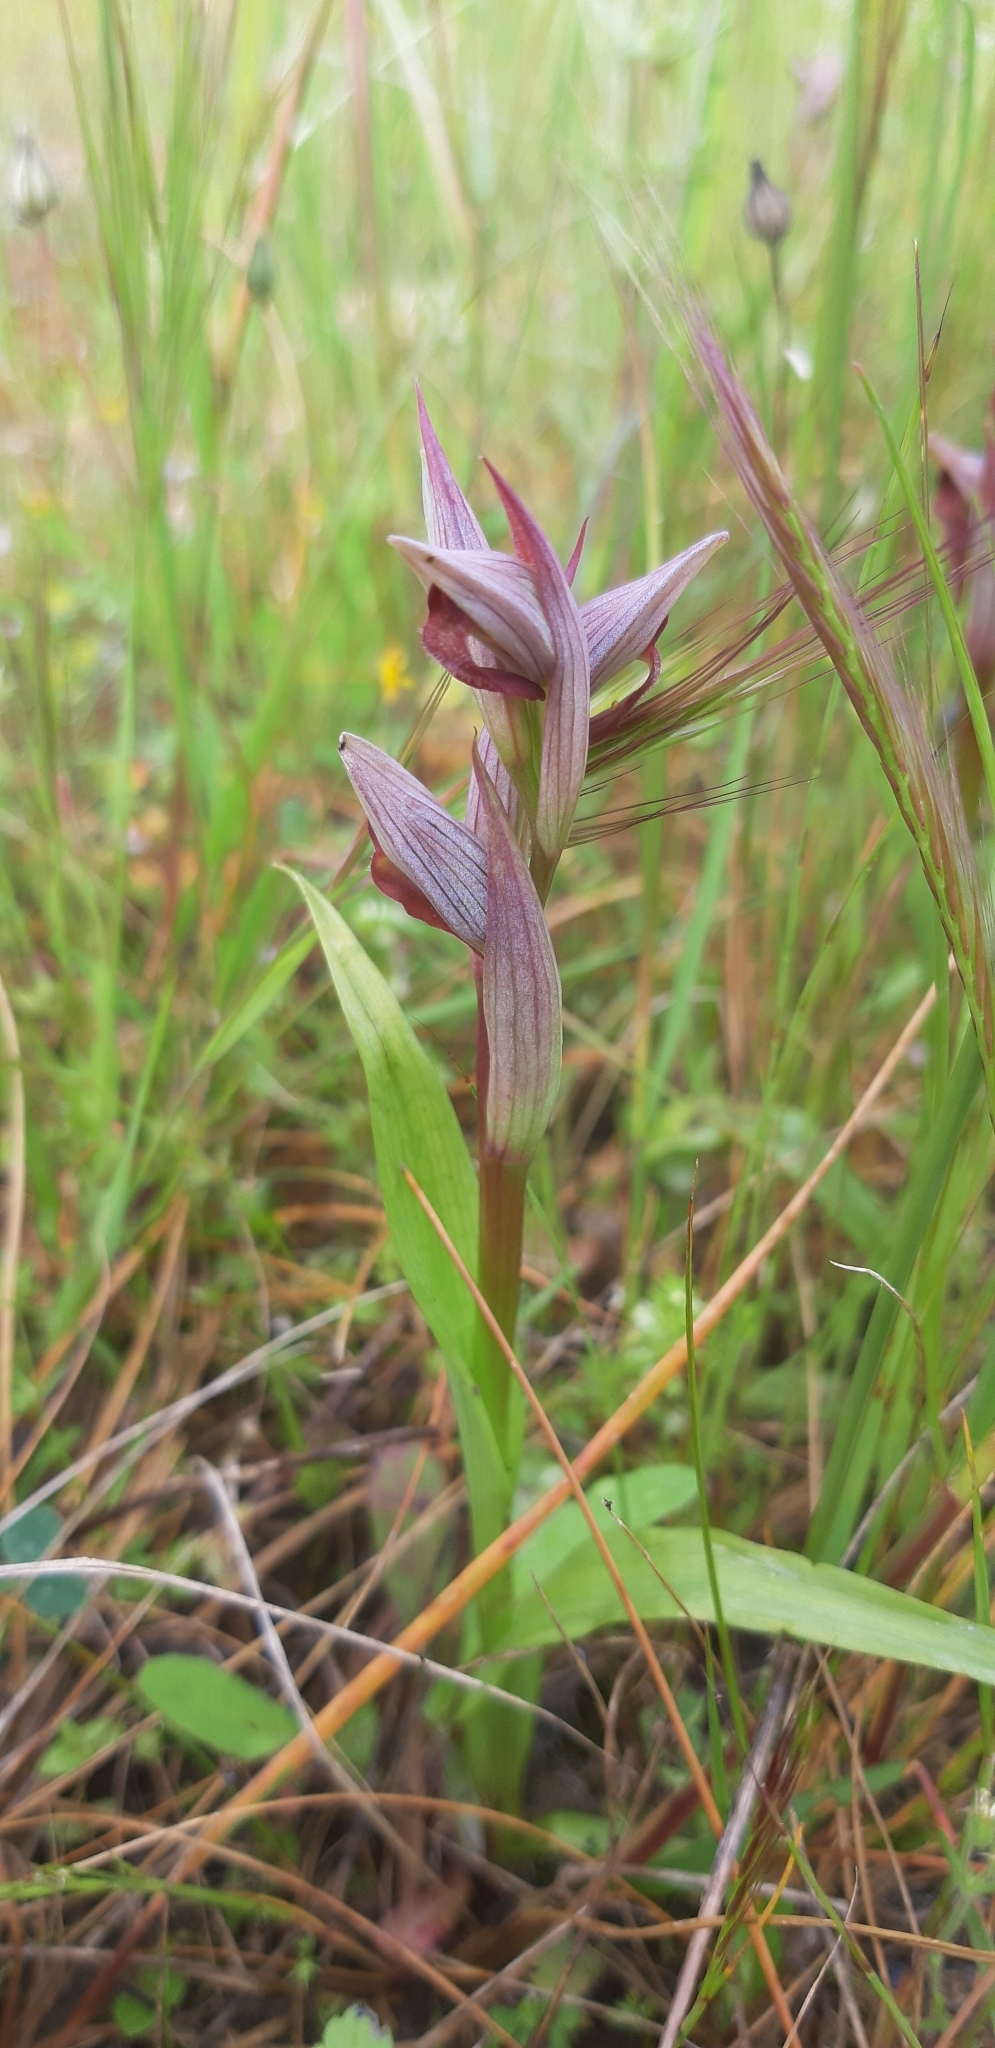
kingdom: Plantae
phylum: Tracheophyta
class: Liliopsida
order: Asparagales
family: Orchidaceae
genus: Serapias
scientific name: Serapias parviflora
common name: Small-flowered tongue-orchid
